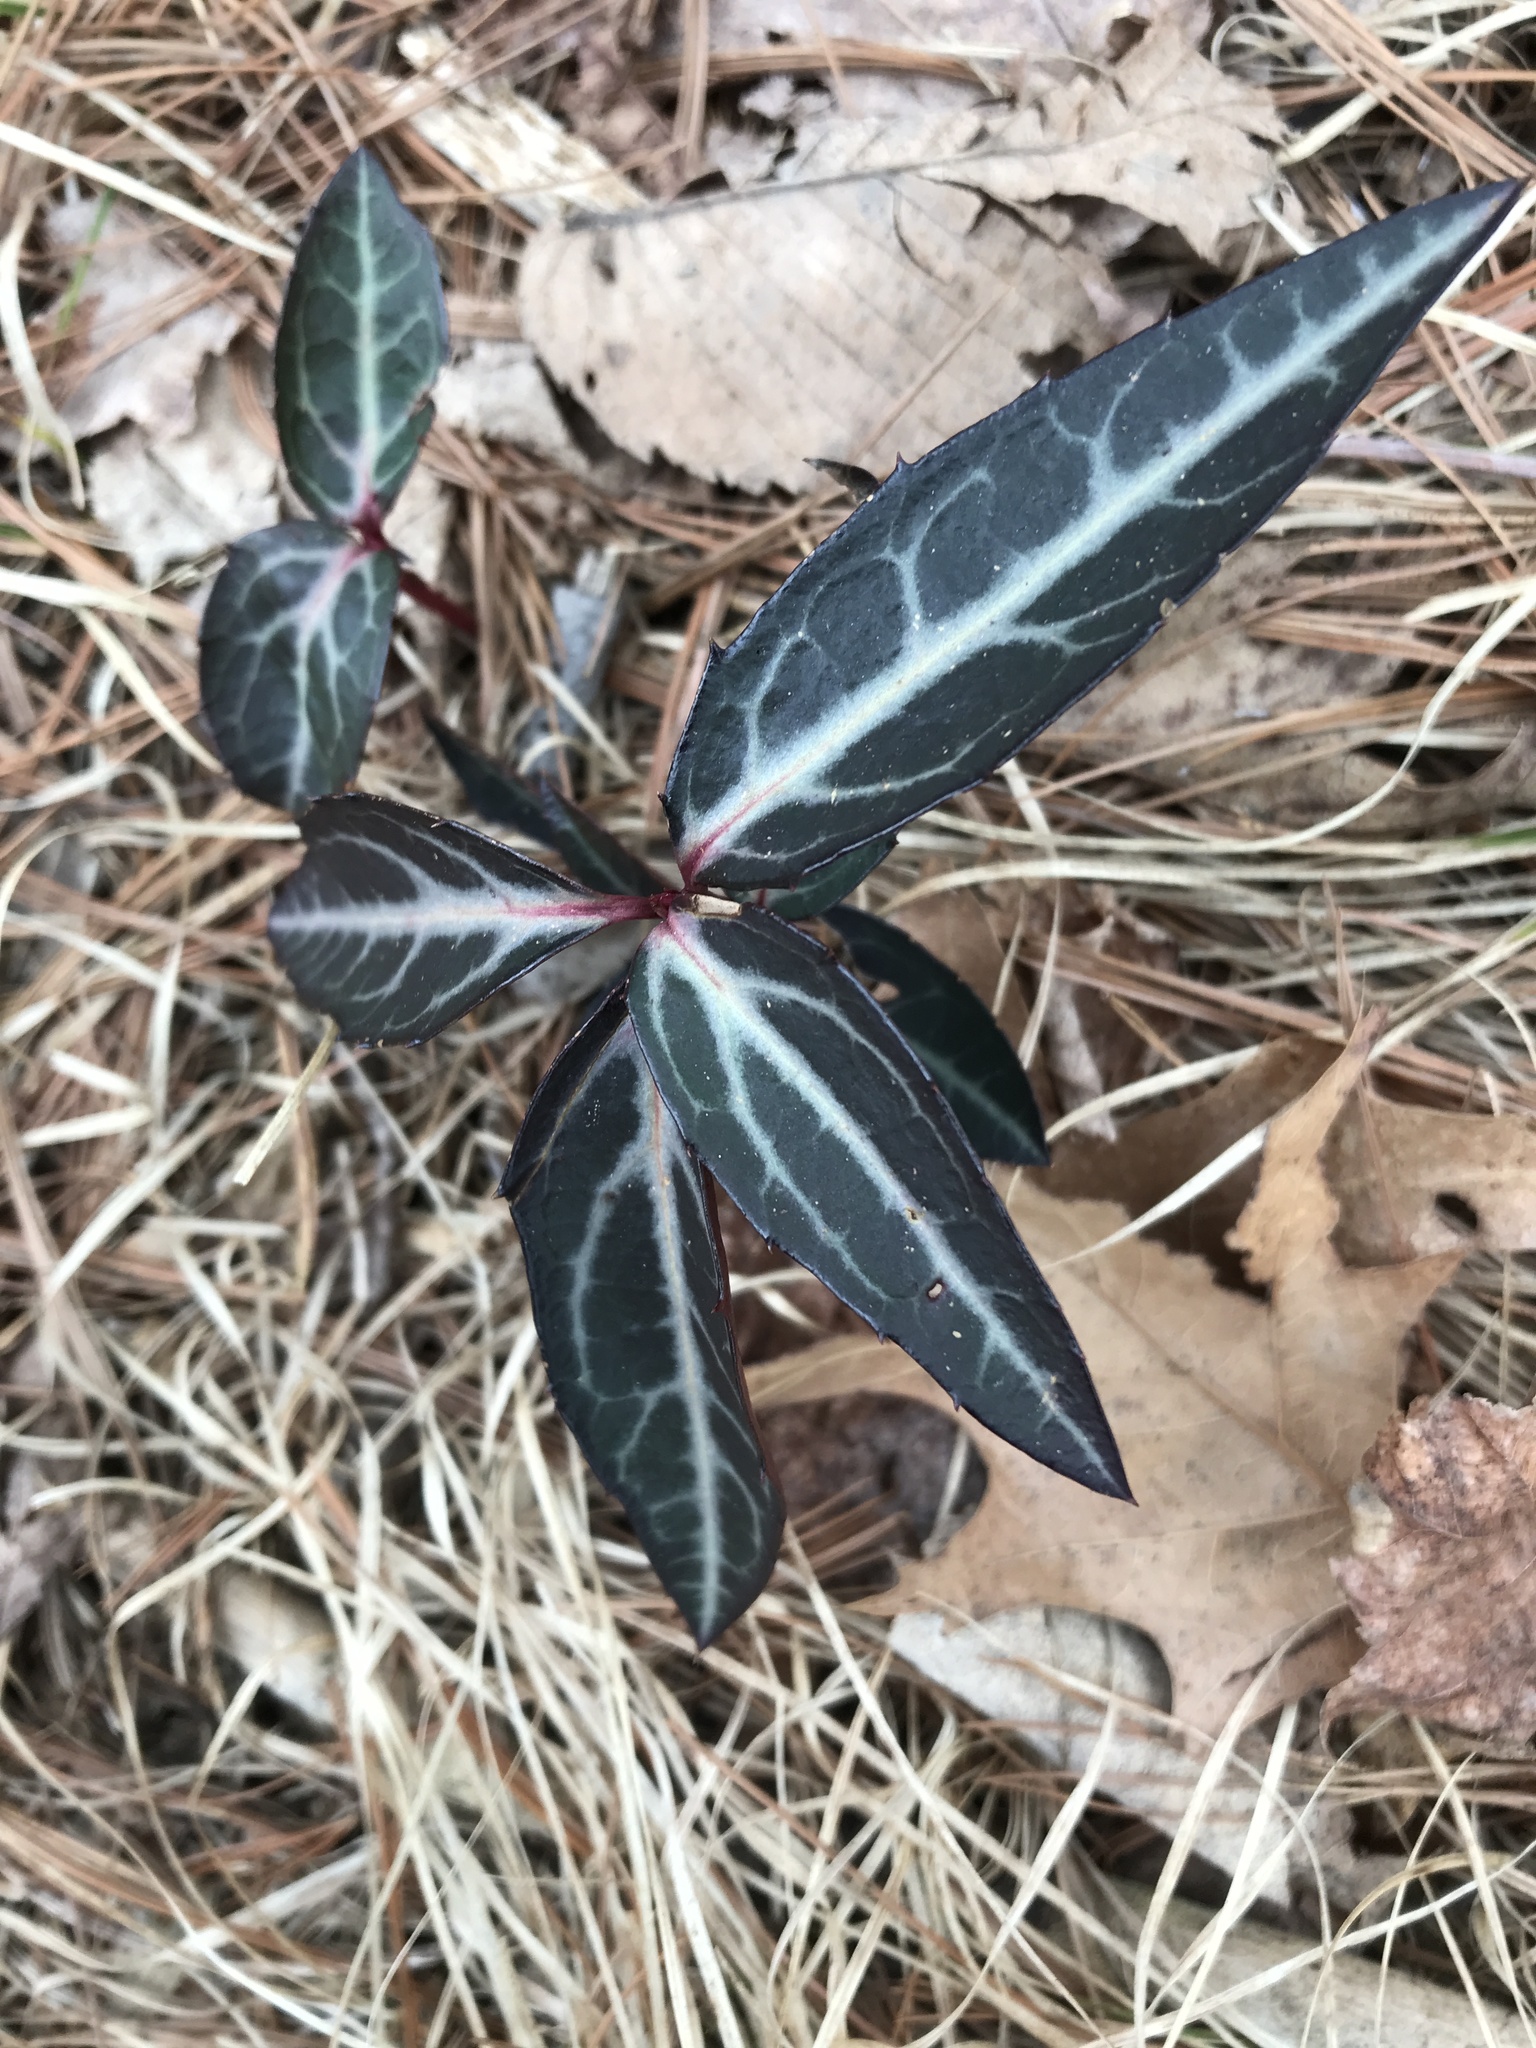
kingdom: Plantae
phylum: Tracheophyta
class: Magnoliopsida
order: Ericales
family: Ericaceae
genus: Chimaphila
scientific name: Chimaphila maculata
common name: Spotted pipsissewa
